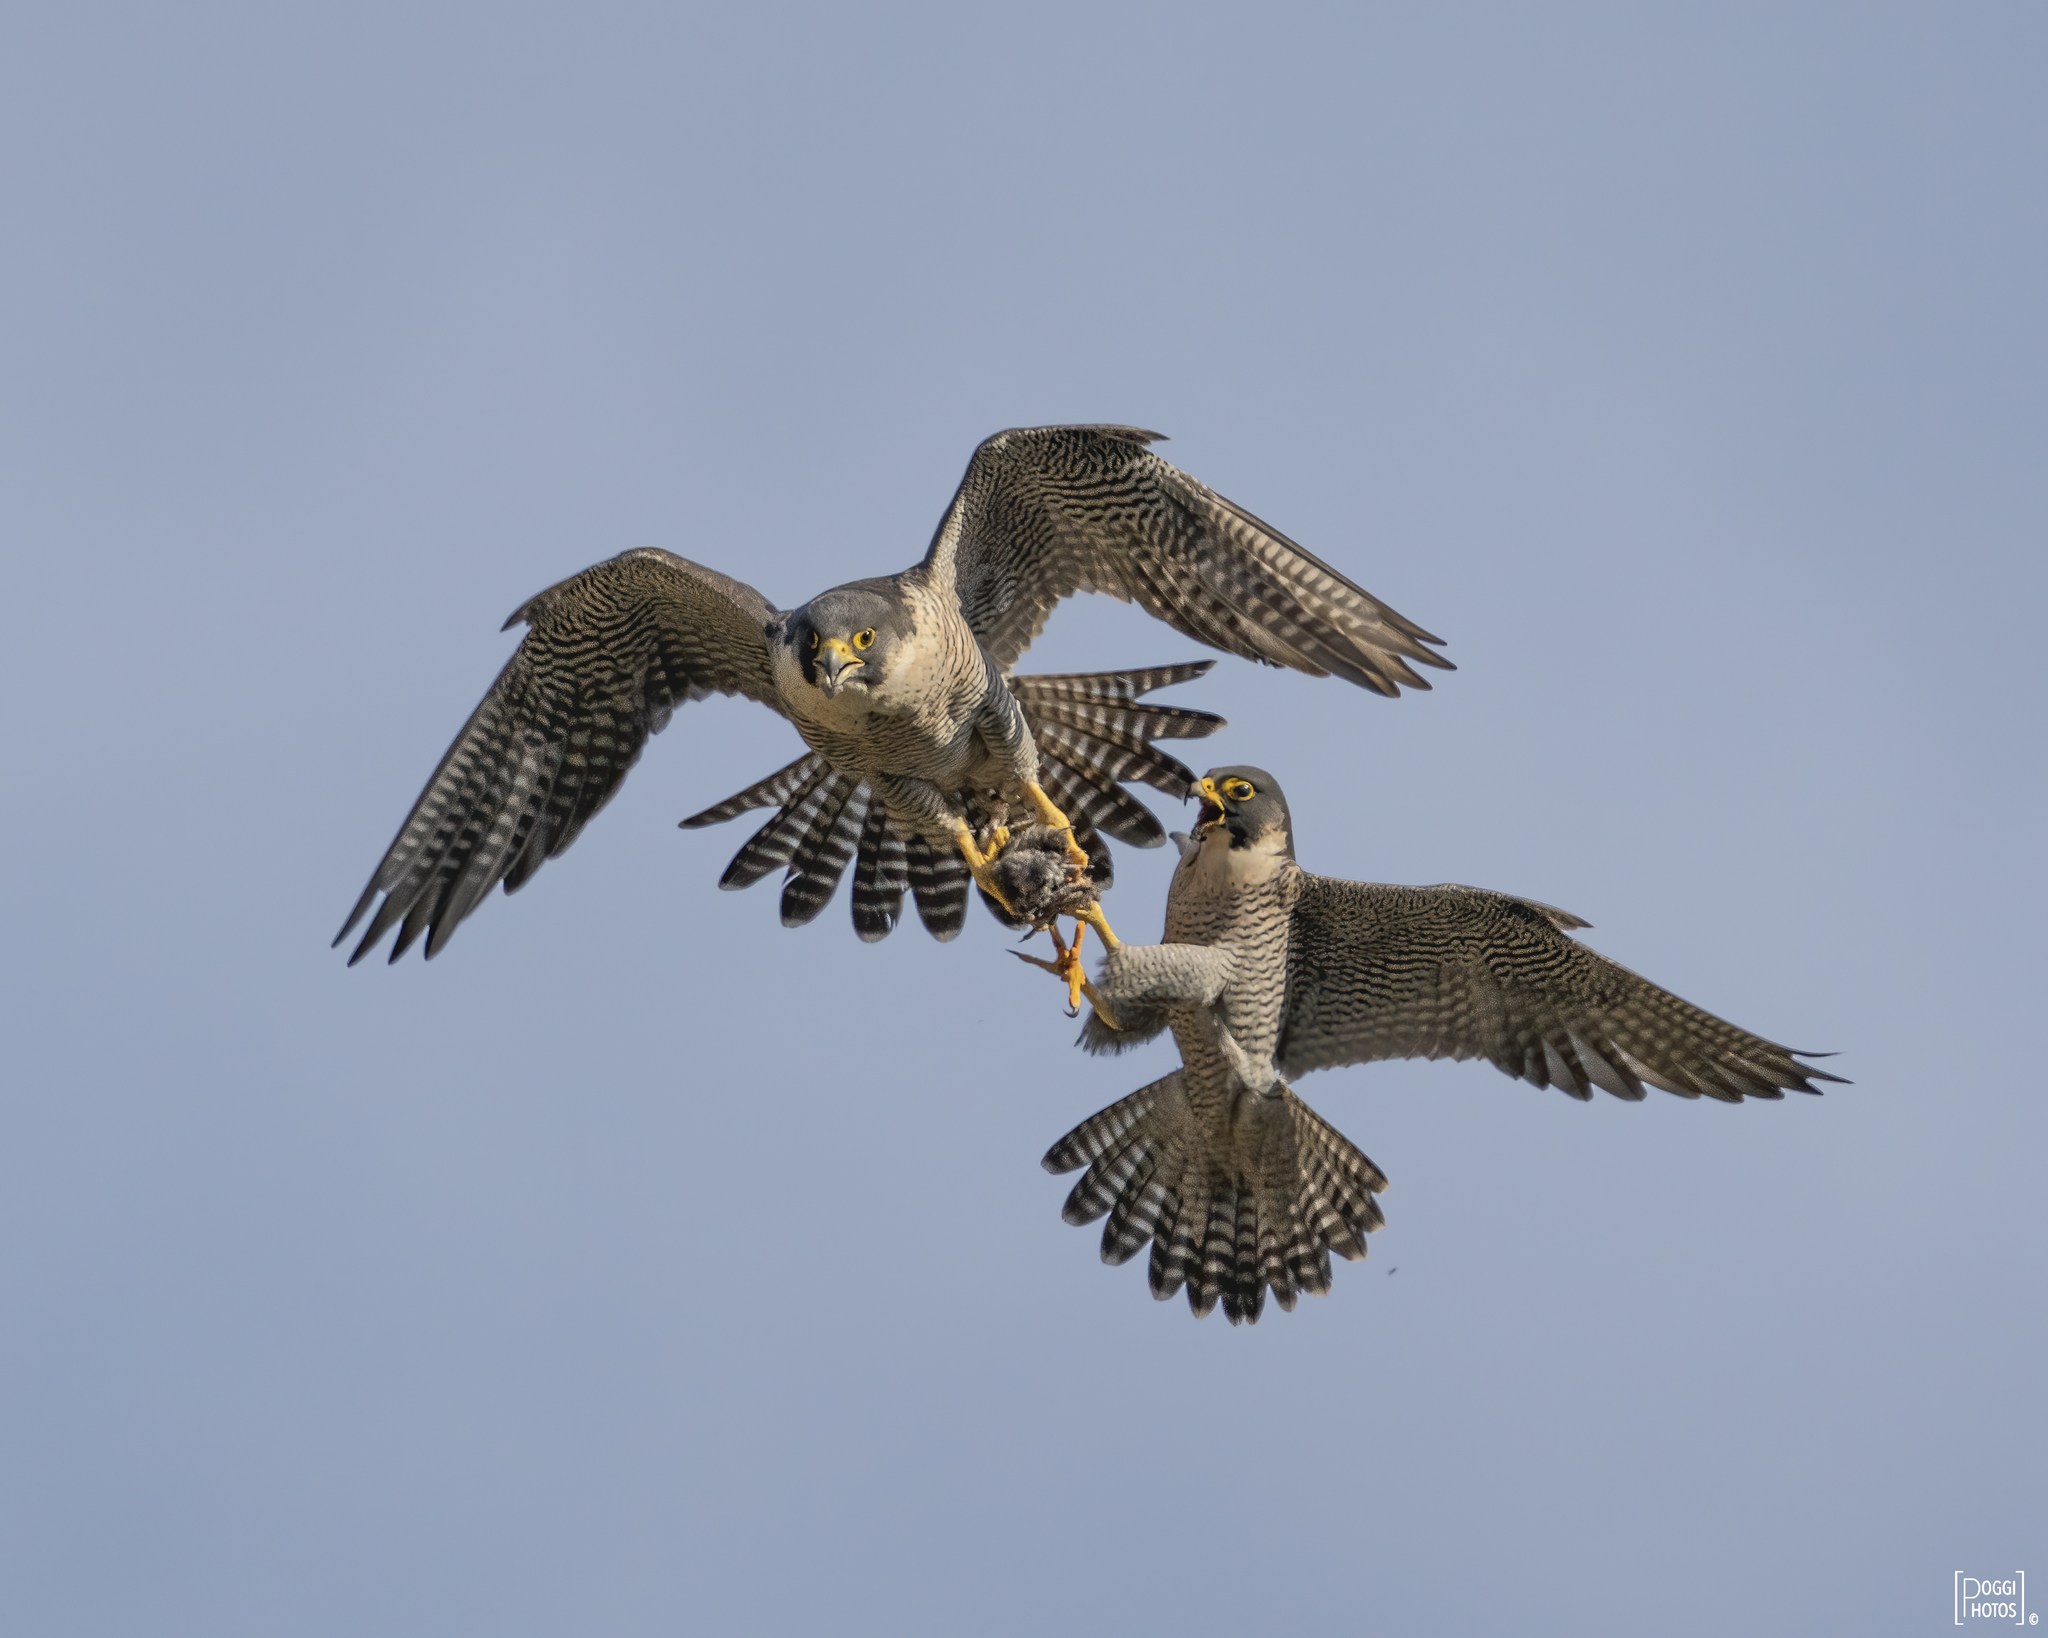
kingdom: Animalia
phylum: Chordata
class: Aves
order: Falconiformes
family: Falconidae
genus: Falco
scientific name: Falco peregrinus
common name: Peregrine falcon
